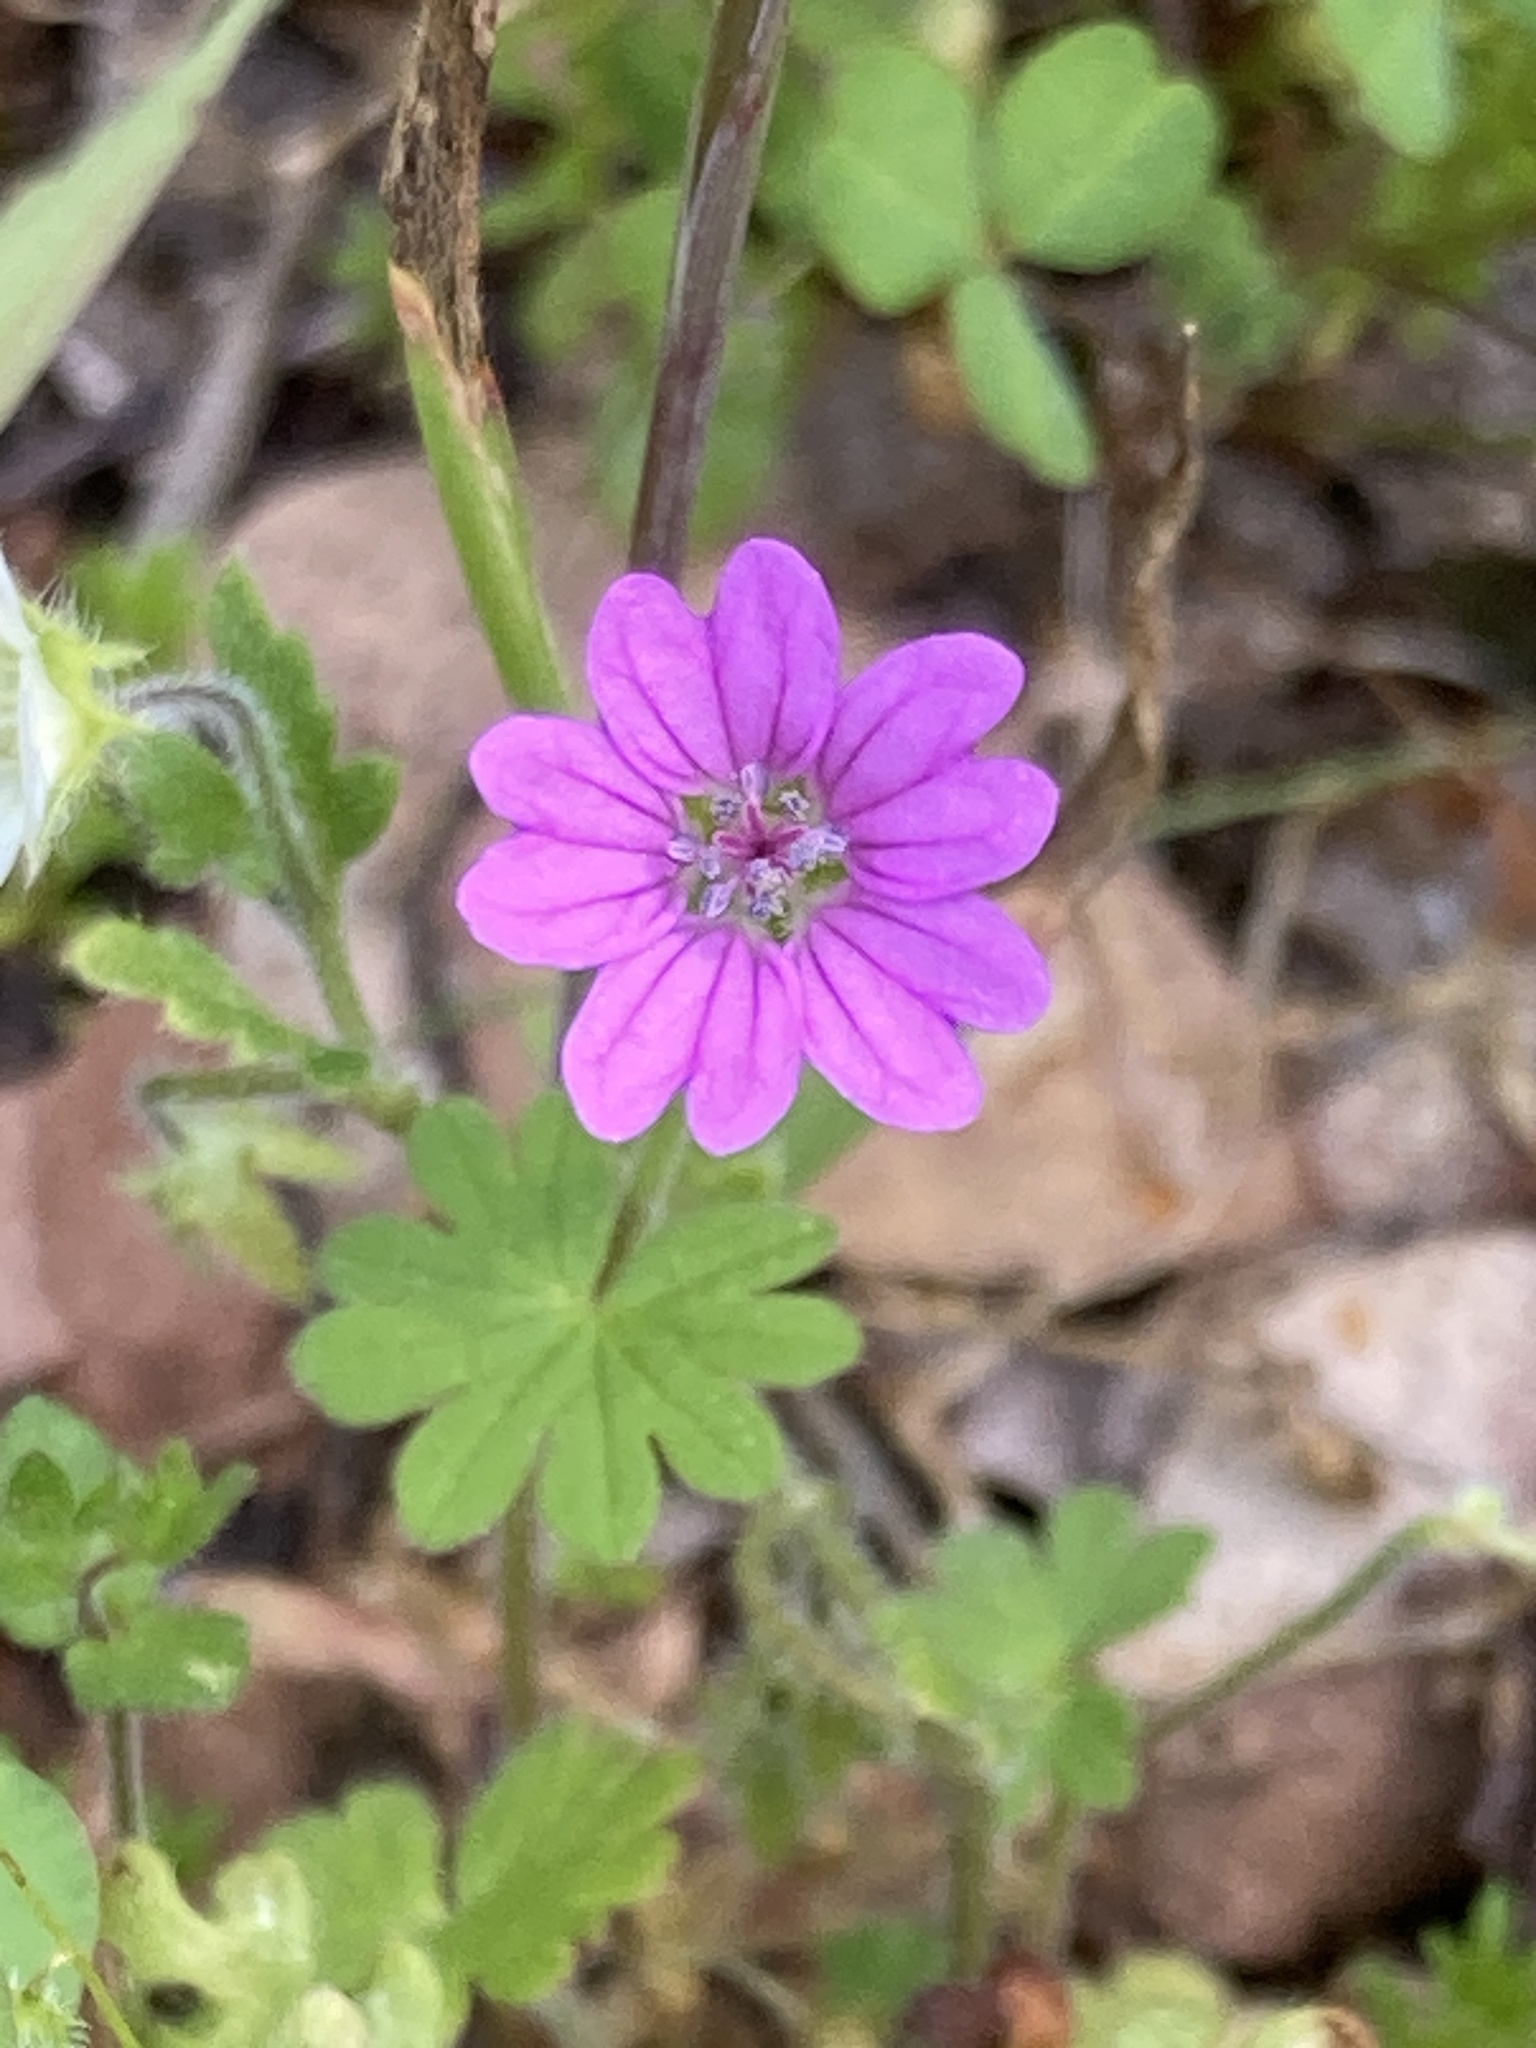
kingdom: Plantae
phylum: Tracheophyta
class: Magnoliopsida
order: Geraniales
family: Geraniaceae
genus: Geranium
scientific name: Geranium molle
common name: Dove's-foot crane's-bill
